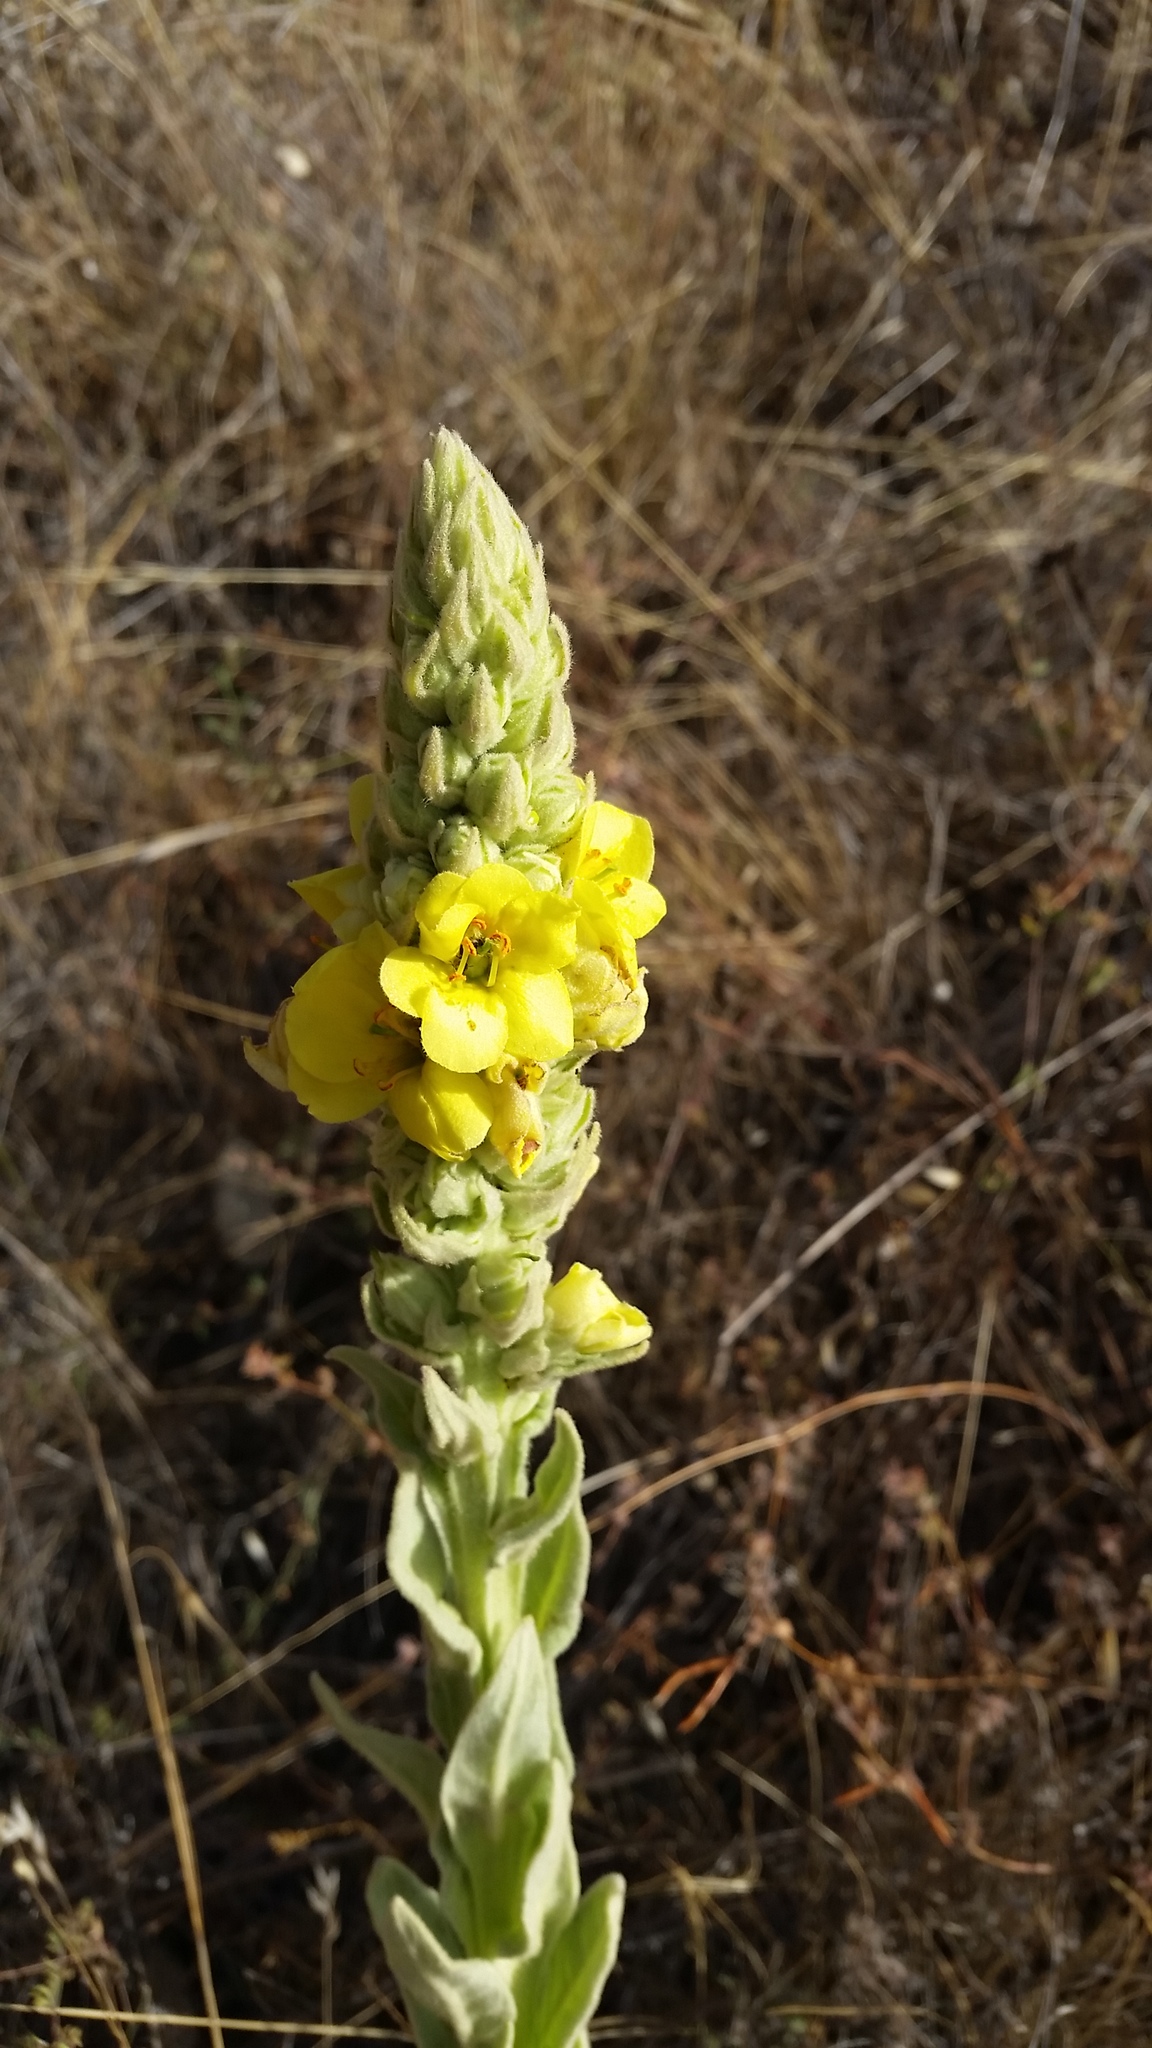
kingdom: Plantae
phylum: Tracheophyta
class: Magnoliopsida
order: Lamiales
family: Scrophulariaceae
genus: Verbascum
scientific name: Verbascum thapsus
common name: Common mullein
